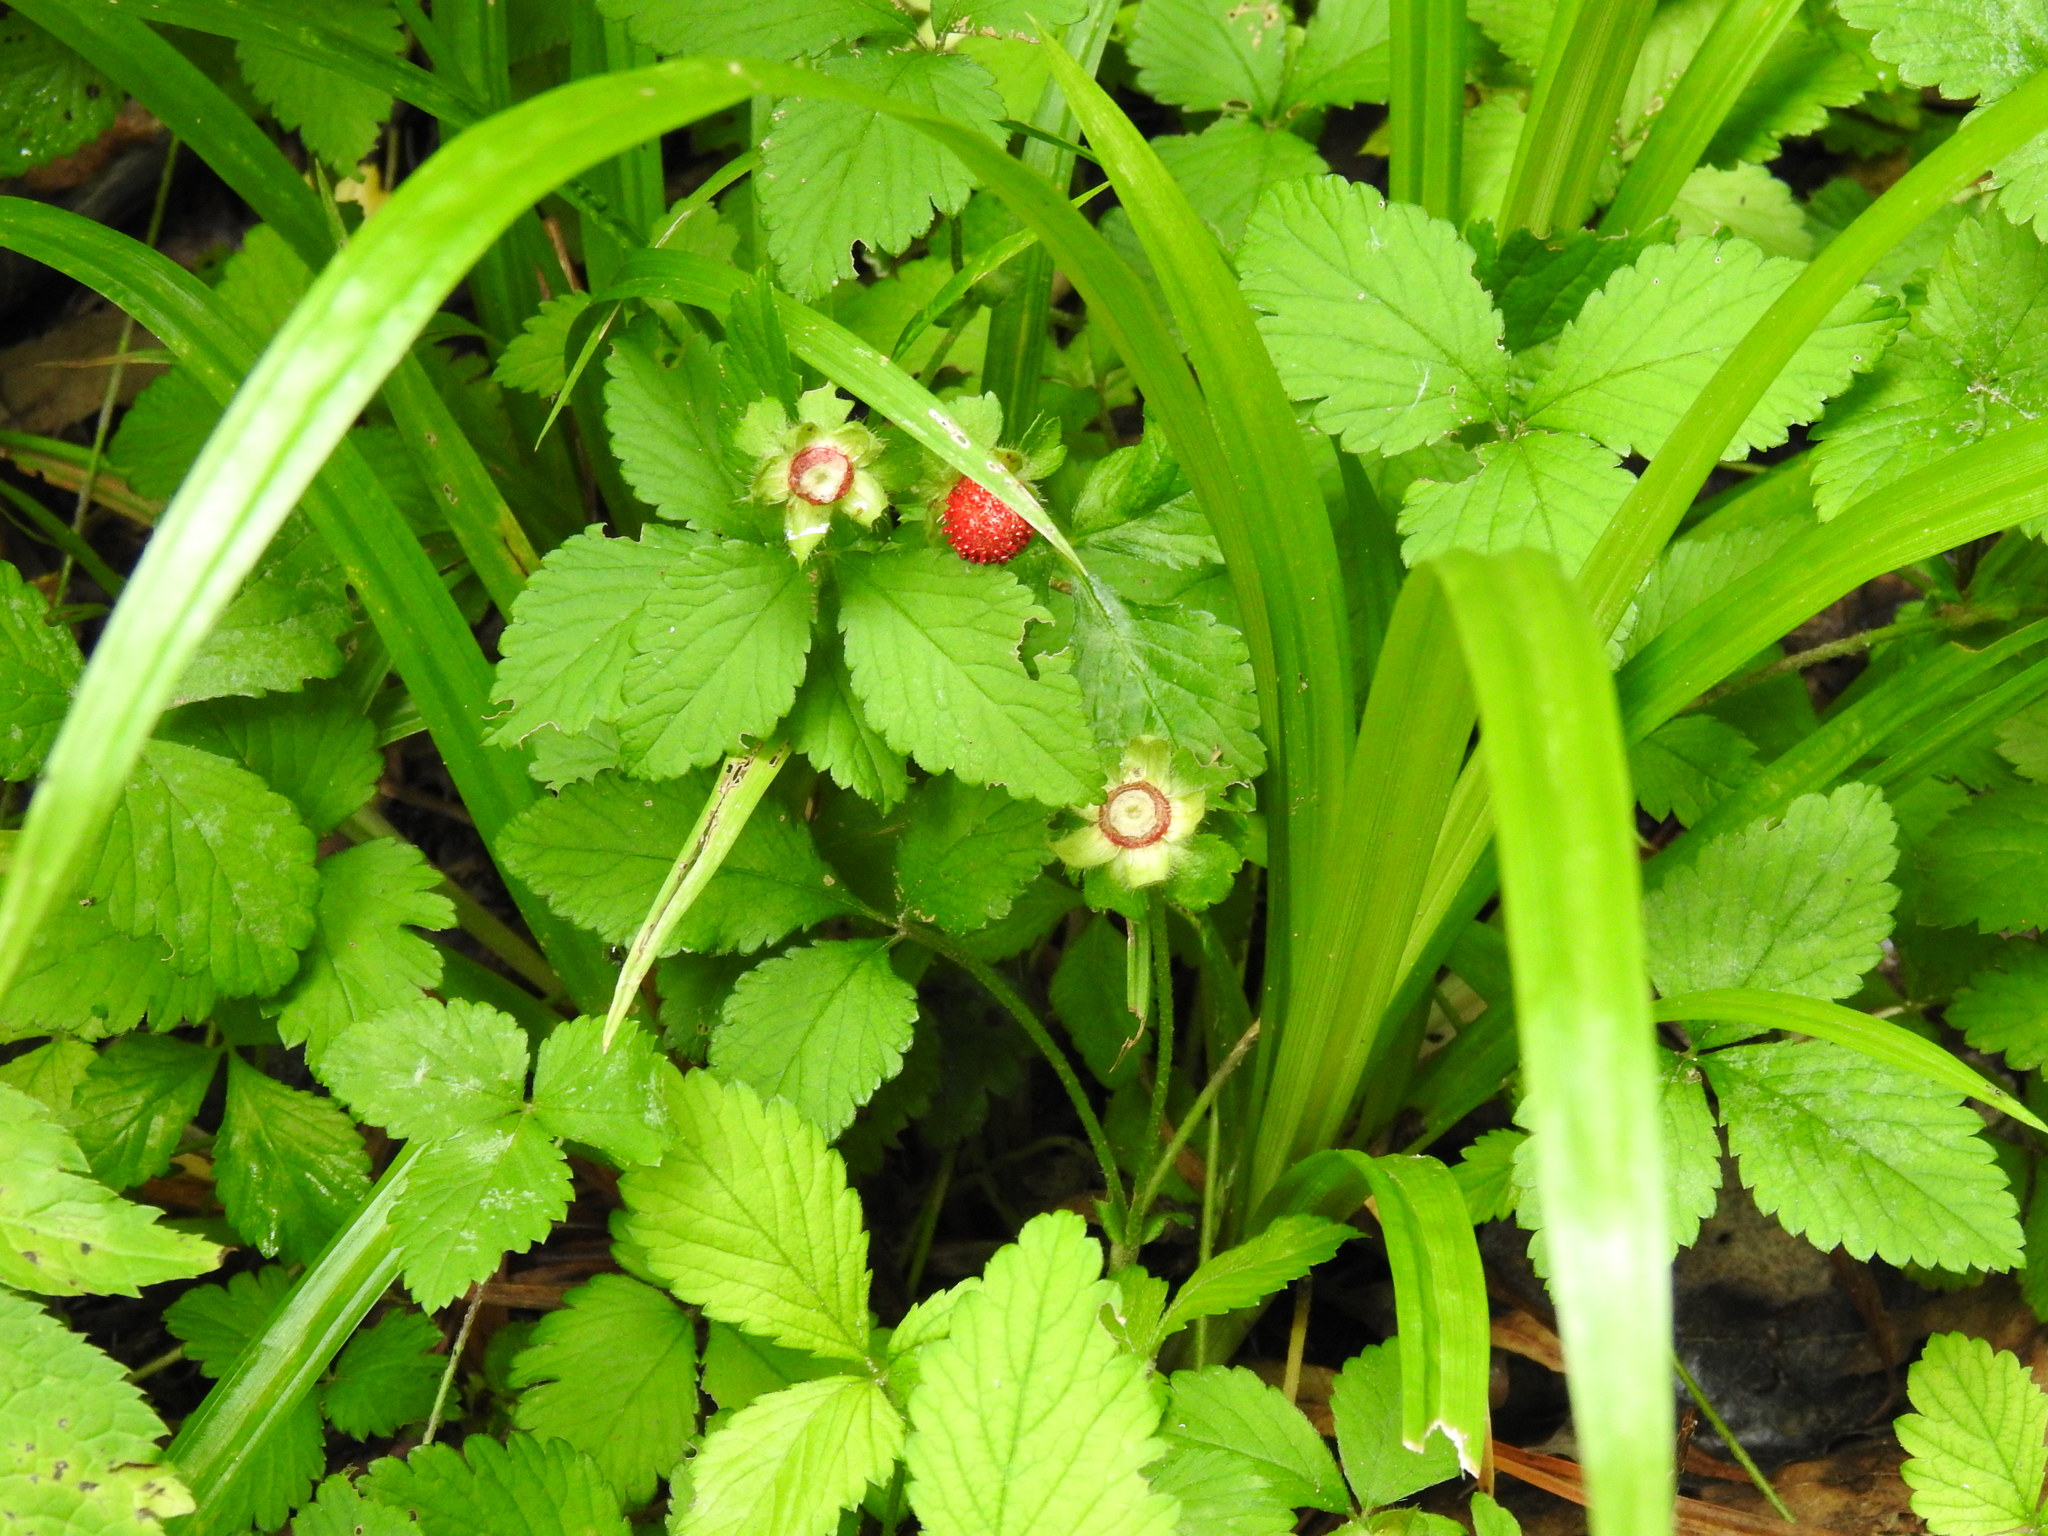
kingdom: Plantae
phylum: Tracheophyta
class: Magnoliopsida
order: Rosales
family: Rosaceae
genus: Potentilla
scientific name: Potentilla indica
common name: Yellow-flowered strawberry
